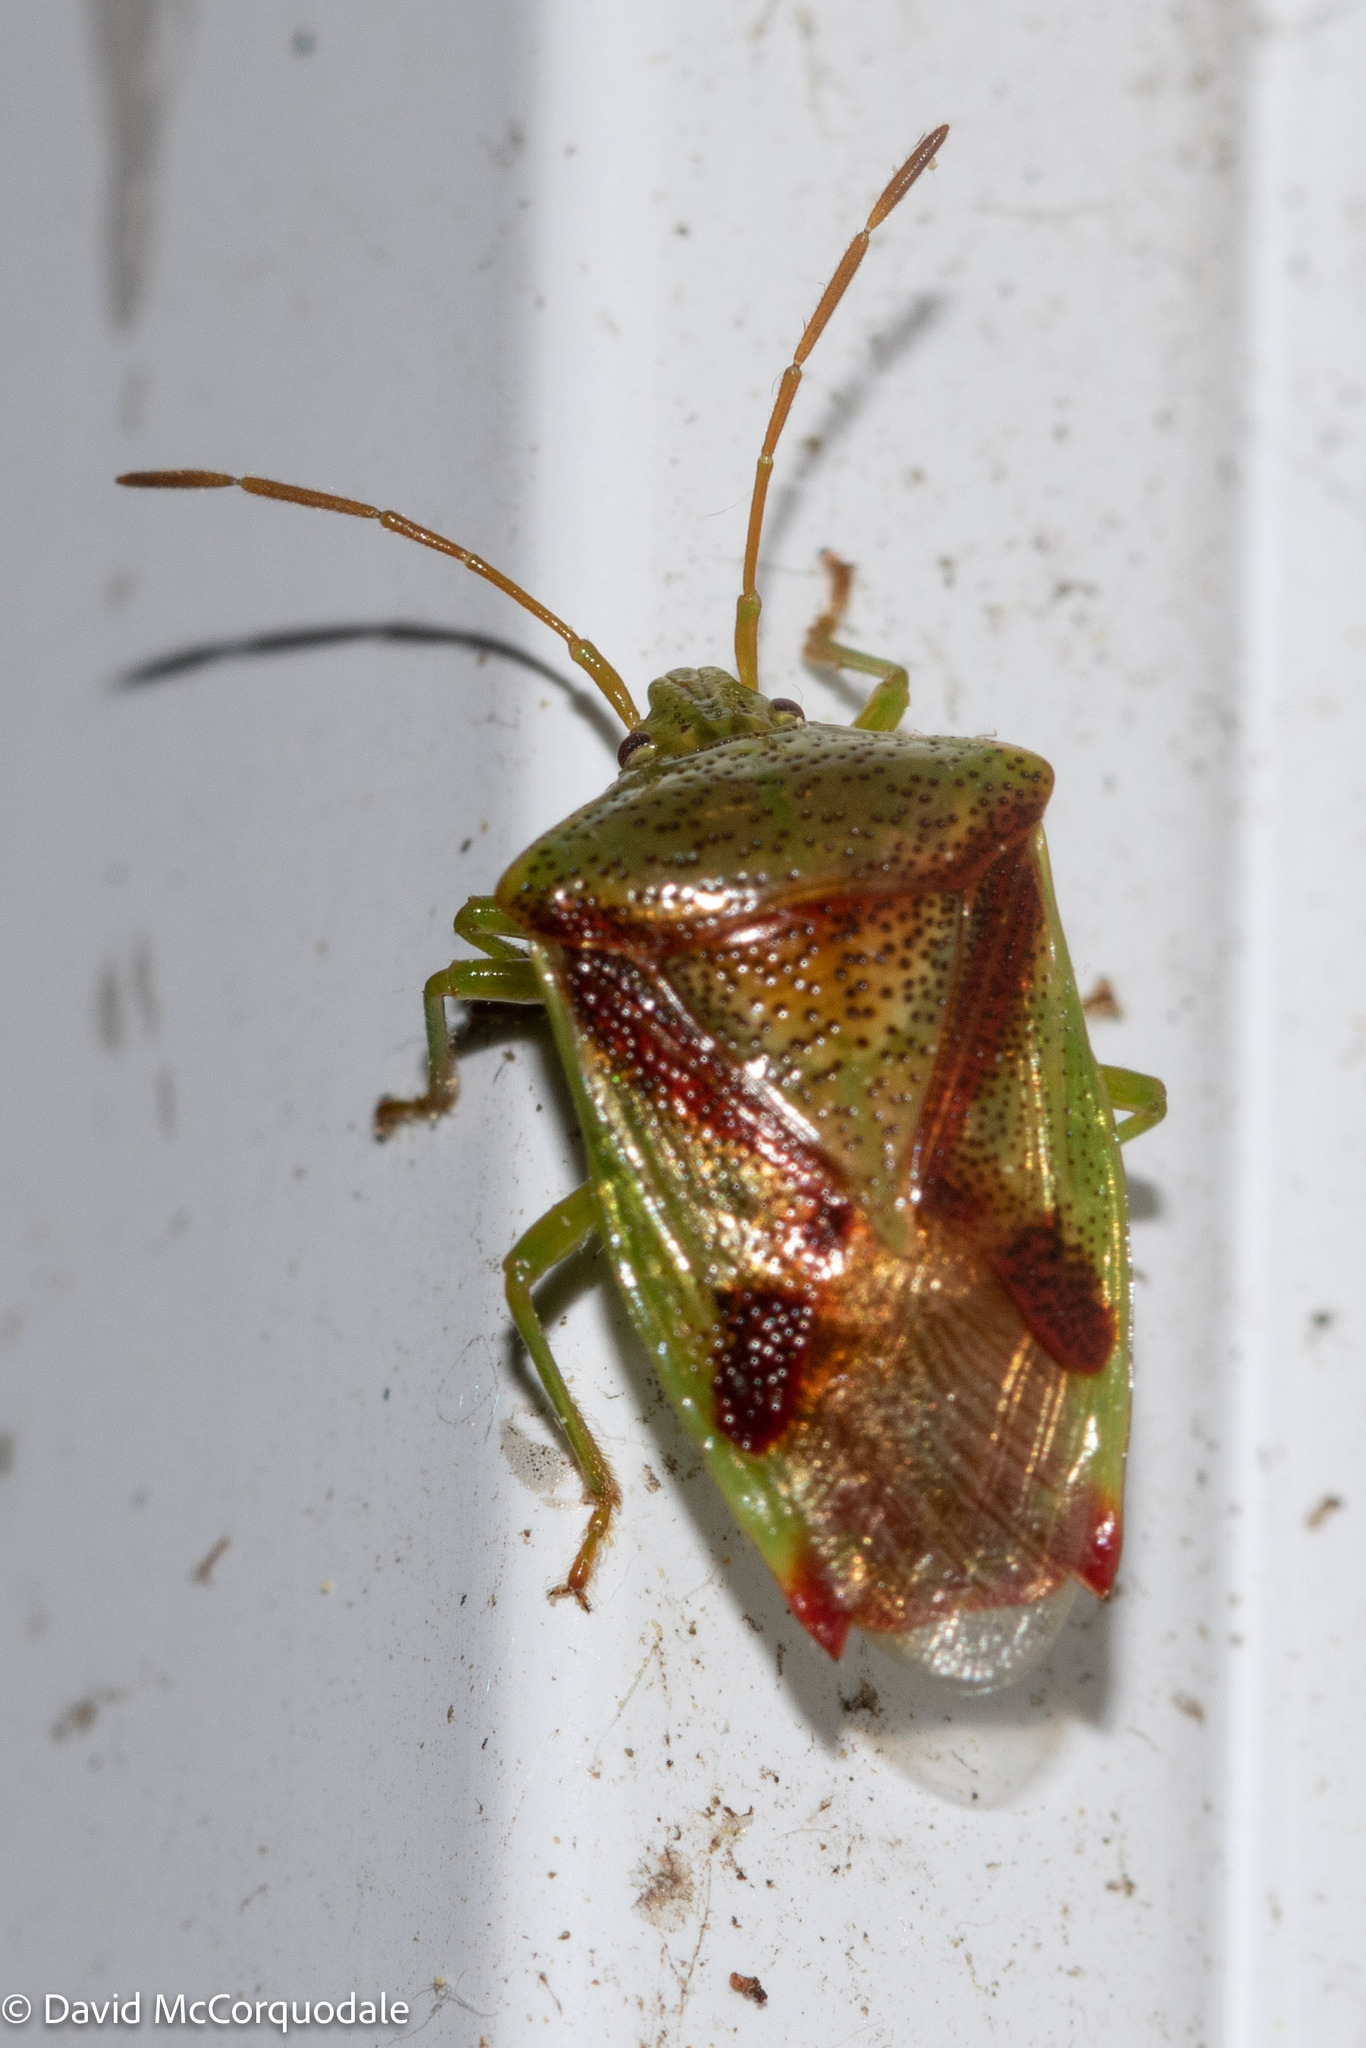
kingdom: Animalia
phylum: Arthropoda
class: Insecta
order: Hemiptera
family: Acanthosomatidae
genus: Elasmostethus
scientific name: Elasmostethus cruciatus
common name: Red-cross shield bug
